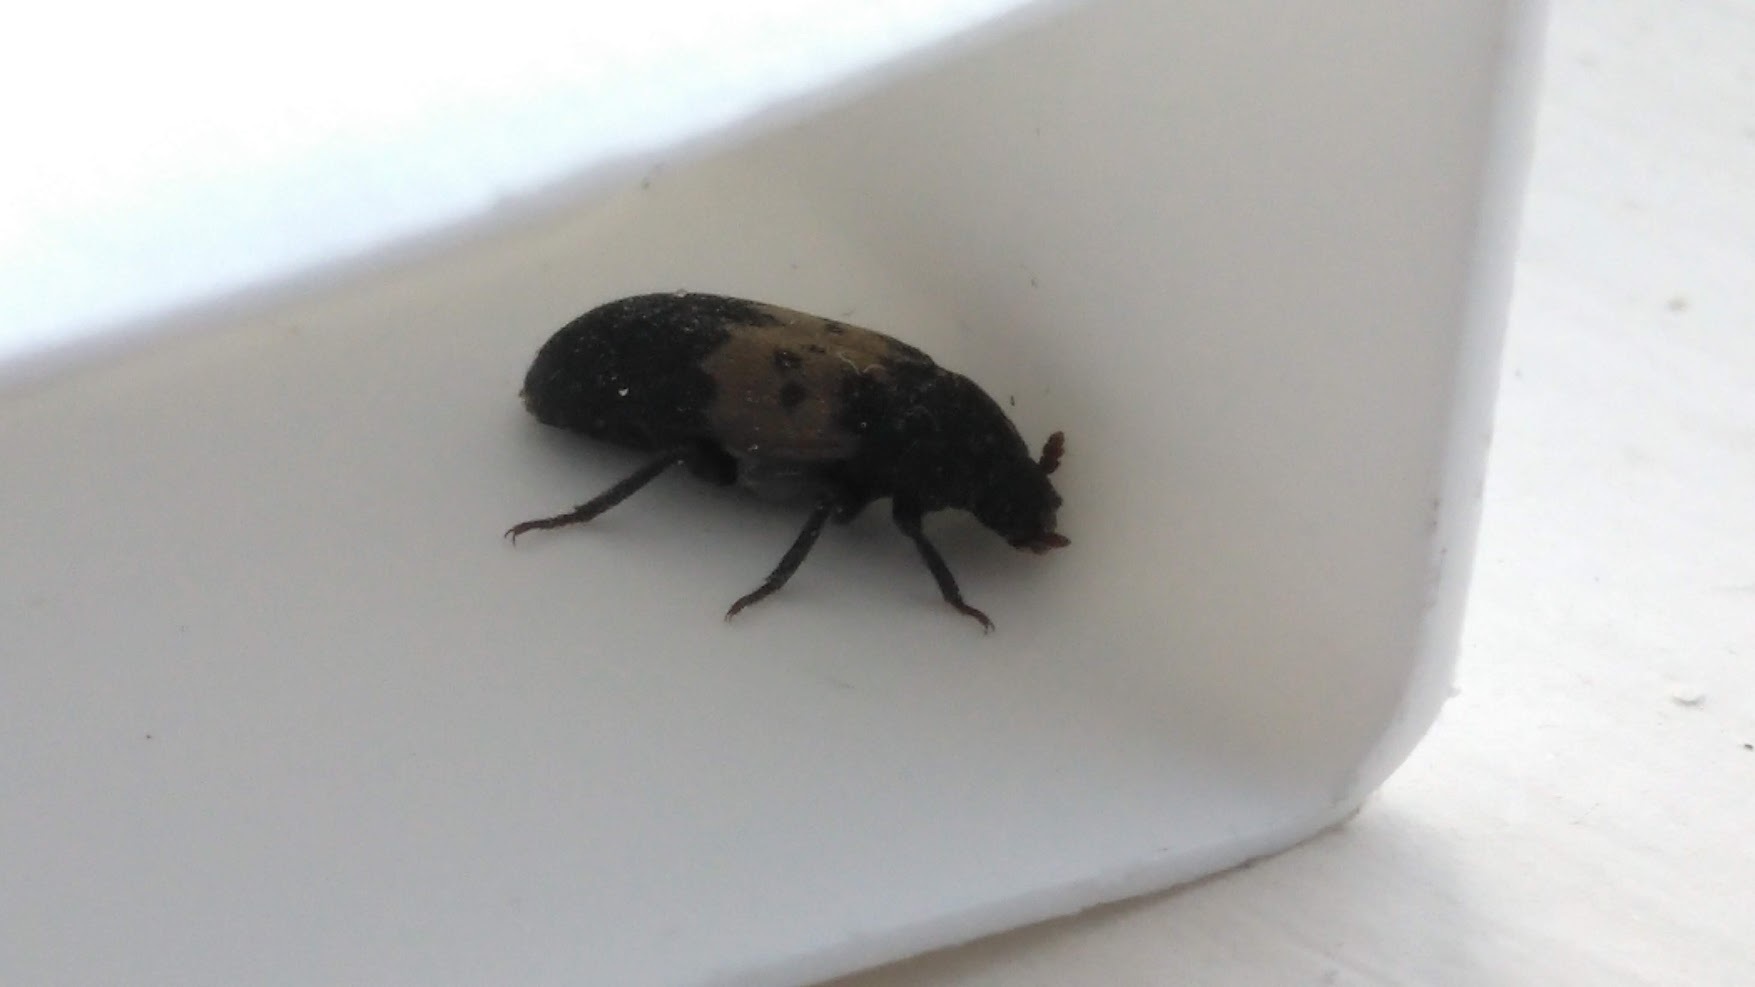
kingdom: Animalia
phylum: Arthropoda
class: Insecta
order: Coleoptera
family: Dermestidae
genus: Dermestes
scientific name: Dermestes lardarius
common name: Larder beetle
